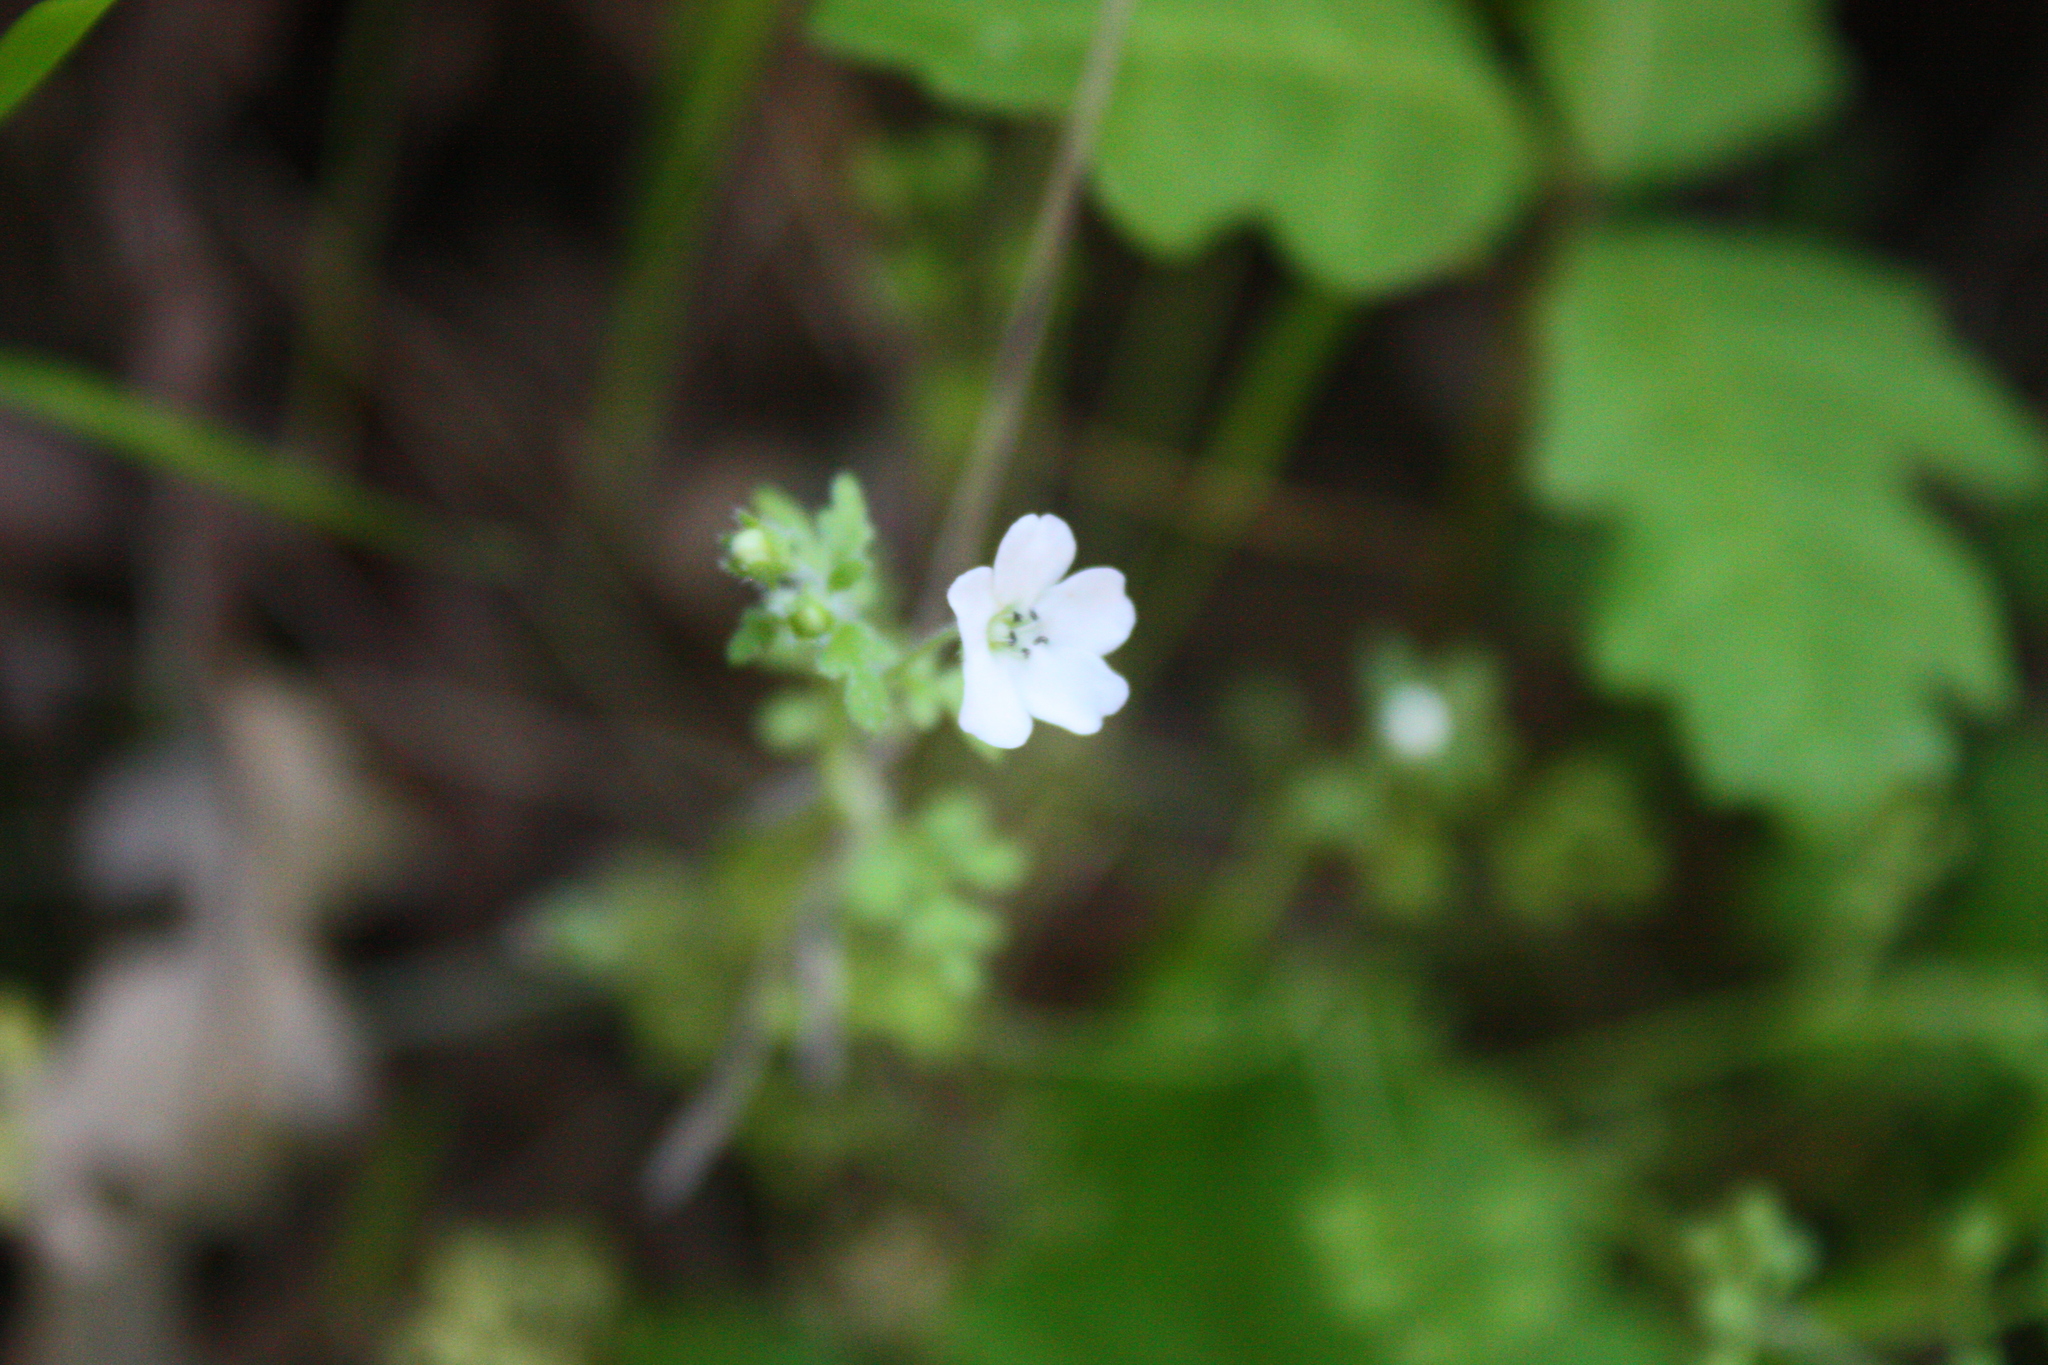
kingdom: Plantae
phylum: Tracheophyta
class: Magnoliopsida
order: Boraginales
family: Hydrophyllaceae
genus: Nemophila
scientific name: Nemophila heterophylla
